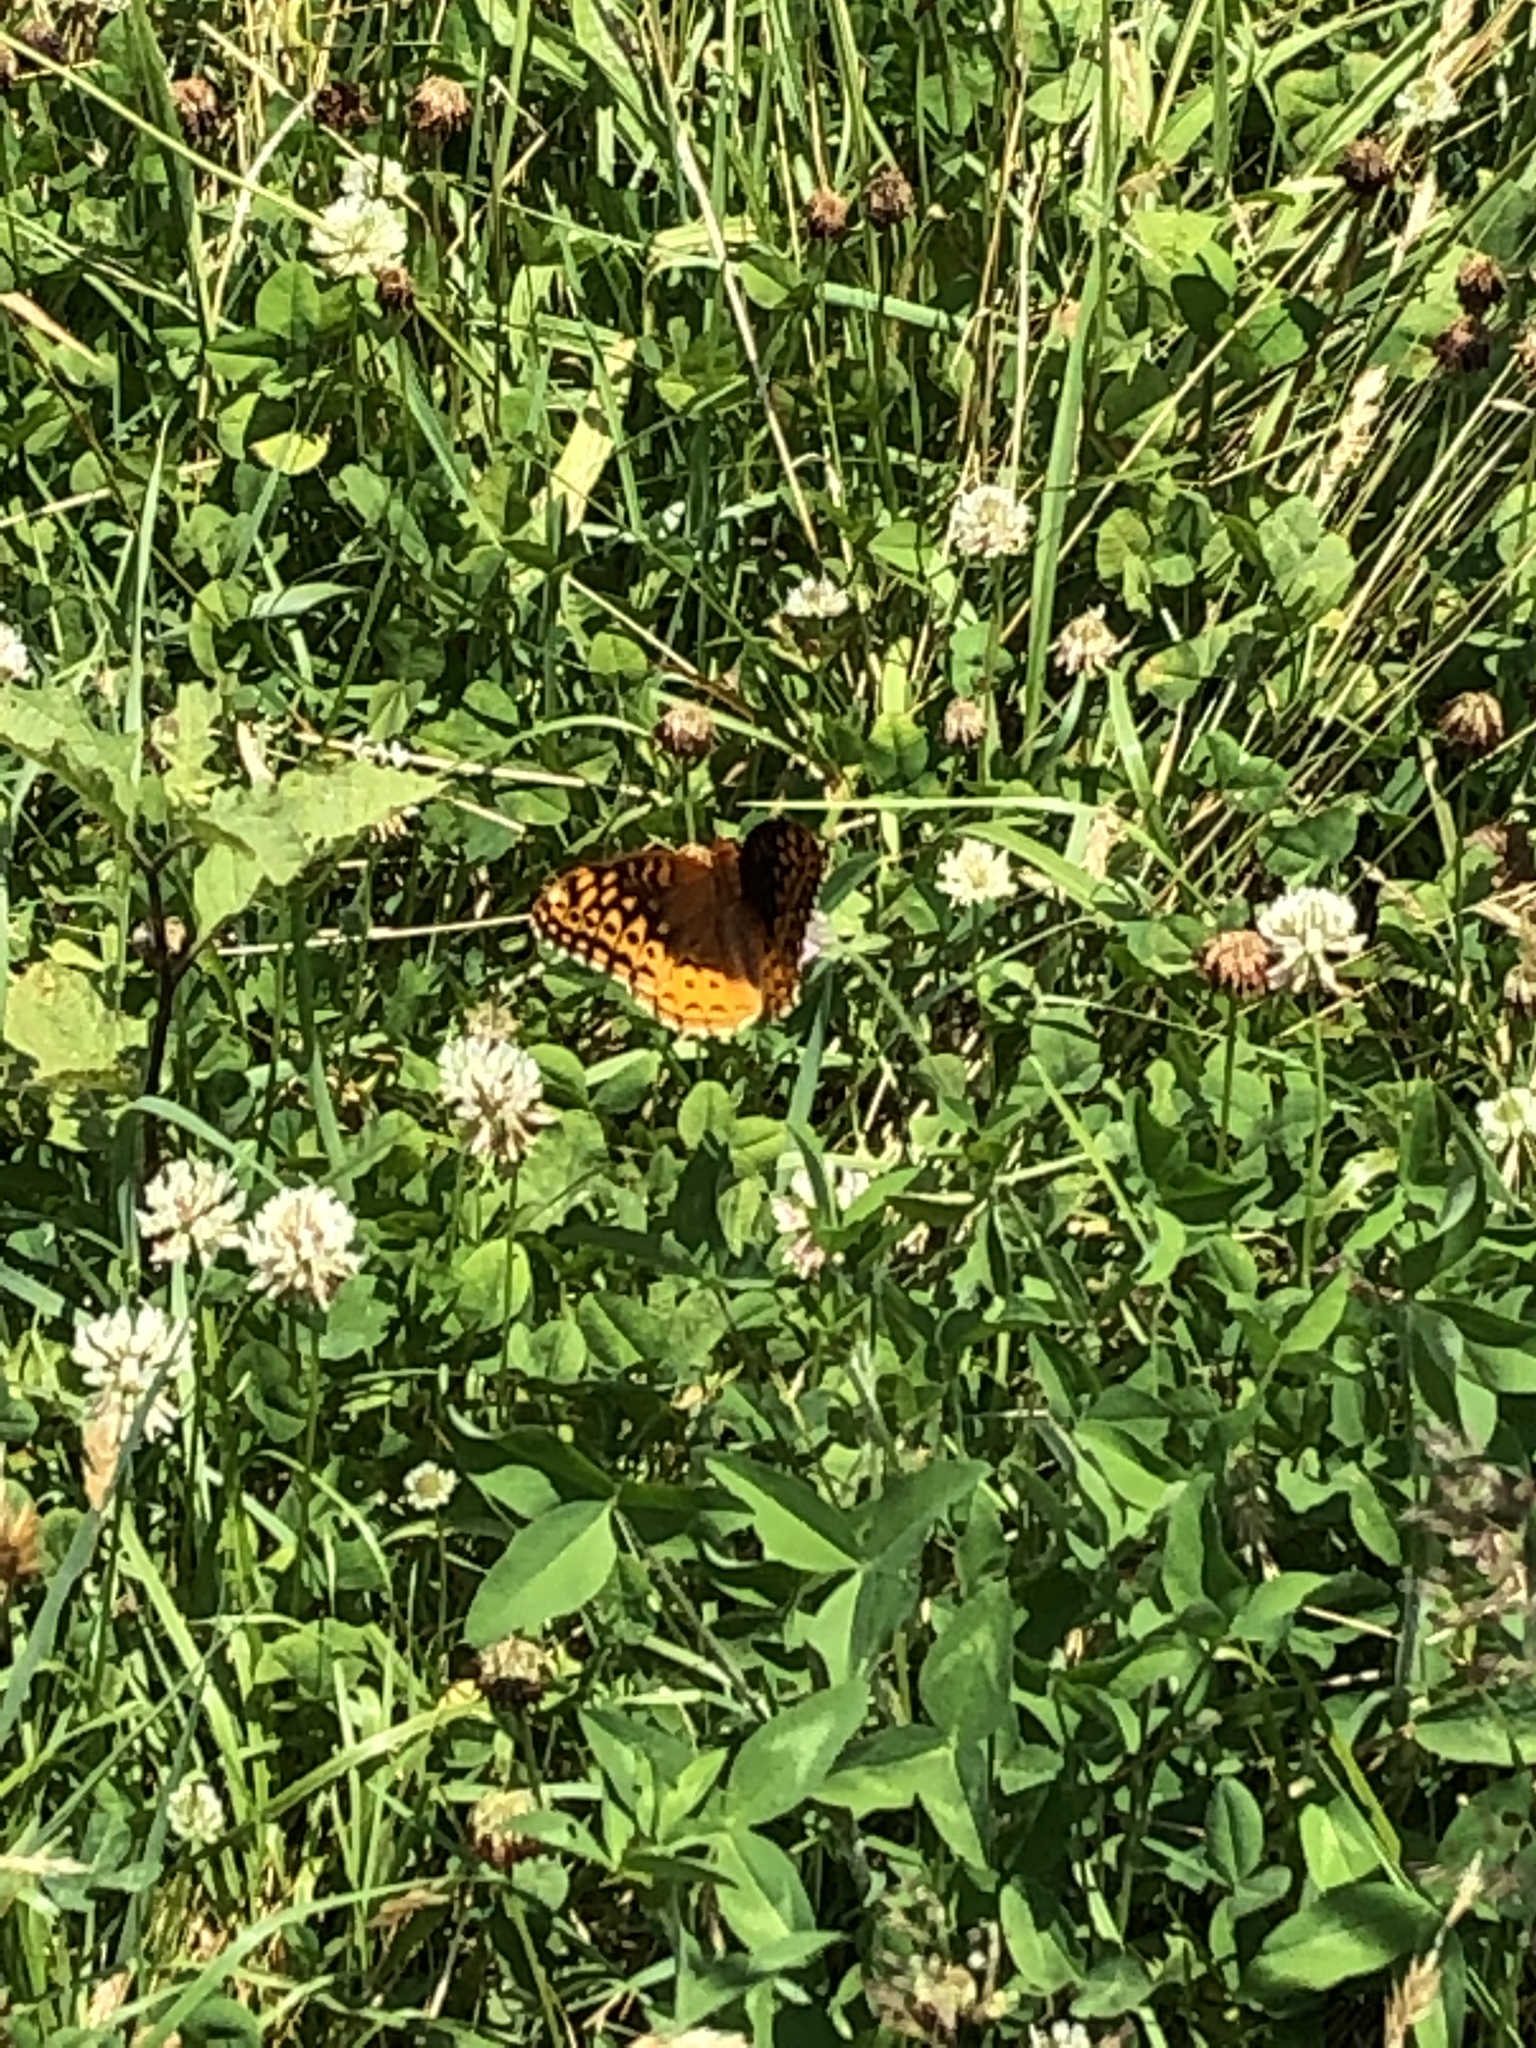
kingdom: Animalia
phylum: Arthropoda
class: Insecta
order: Lepidoptera
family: Nymphalidae
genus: Speyeria
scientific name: Speyeria cybele
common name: Great spangled fritillary
